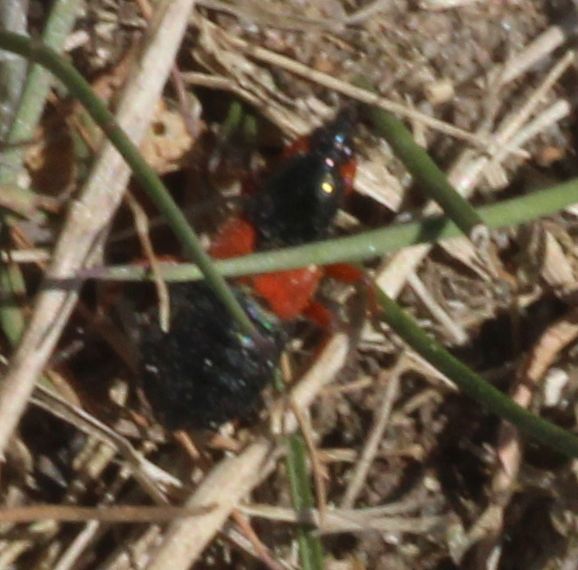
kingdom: Animalia
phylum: Arthropoda
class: Insecta
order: Hemiptera
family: Nabidae
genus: Prostemma
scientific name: Prostemma guttula
